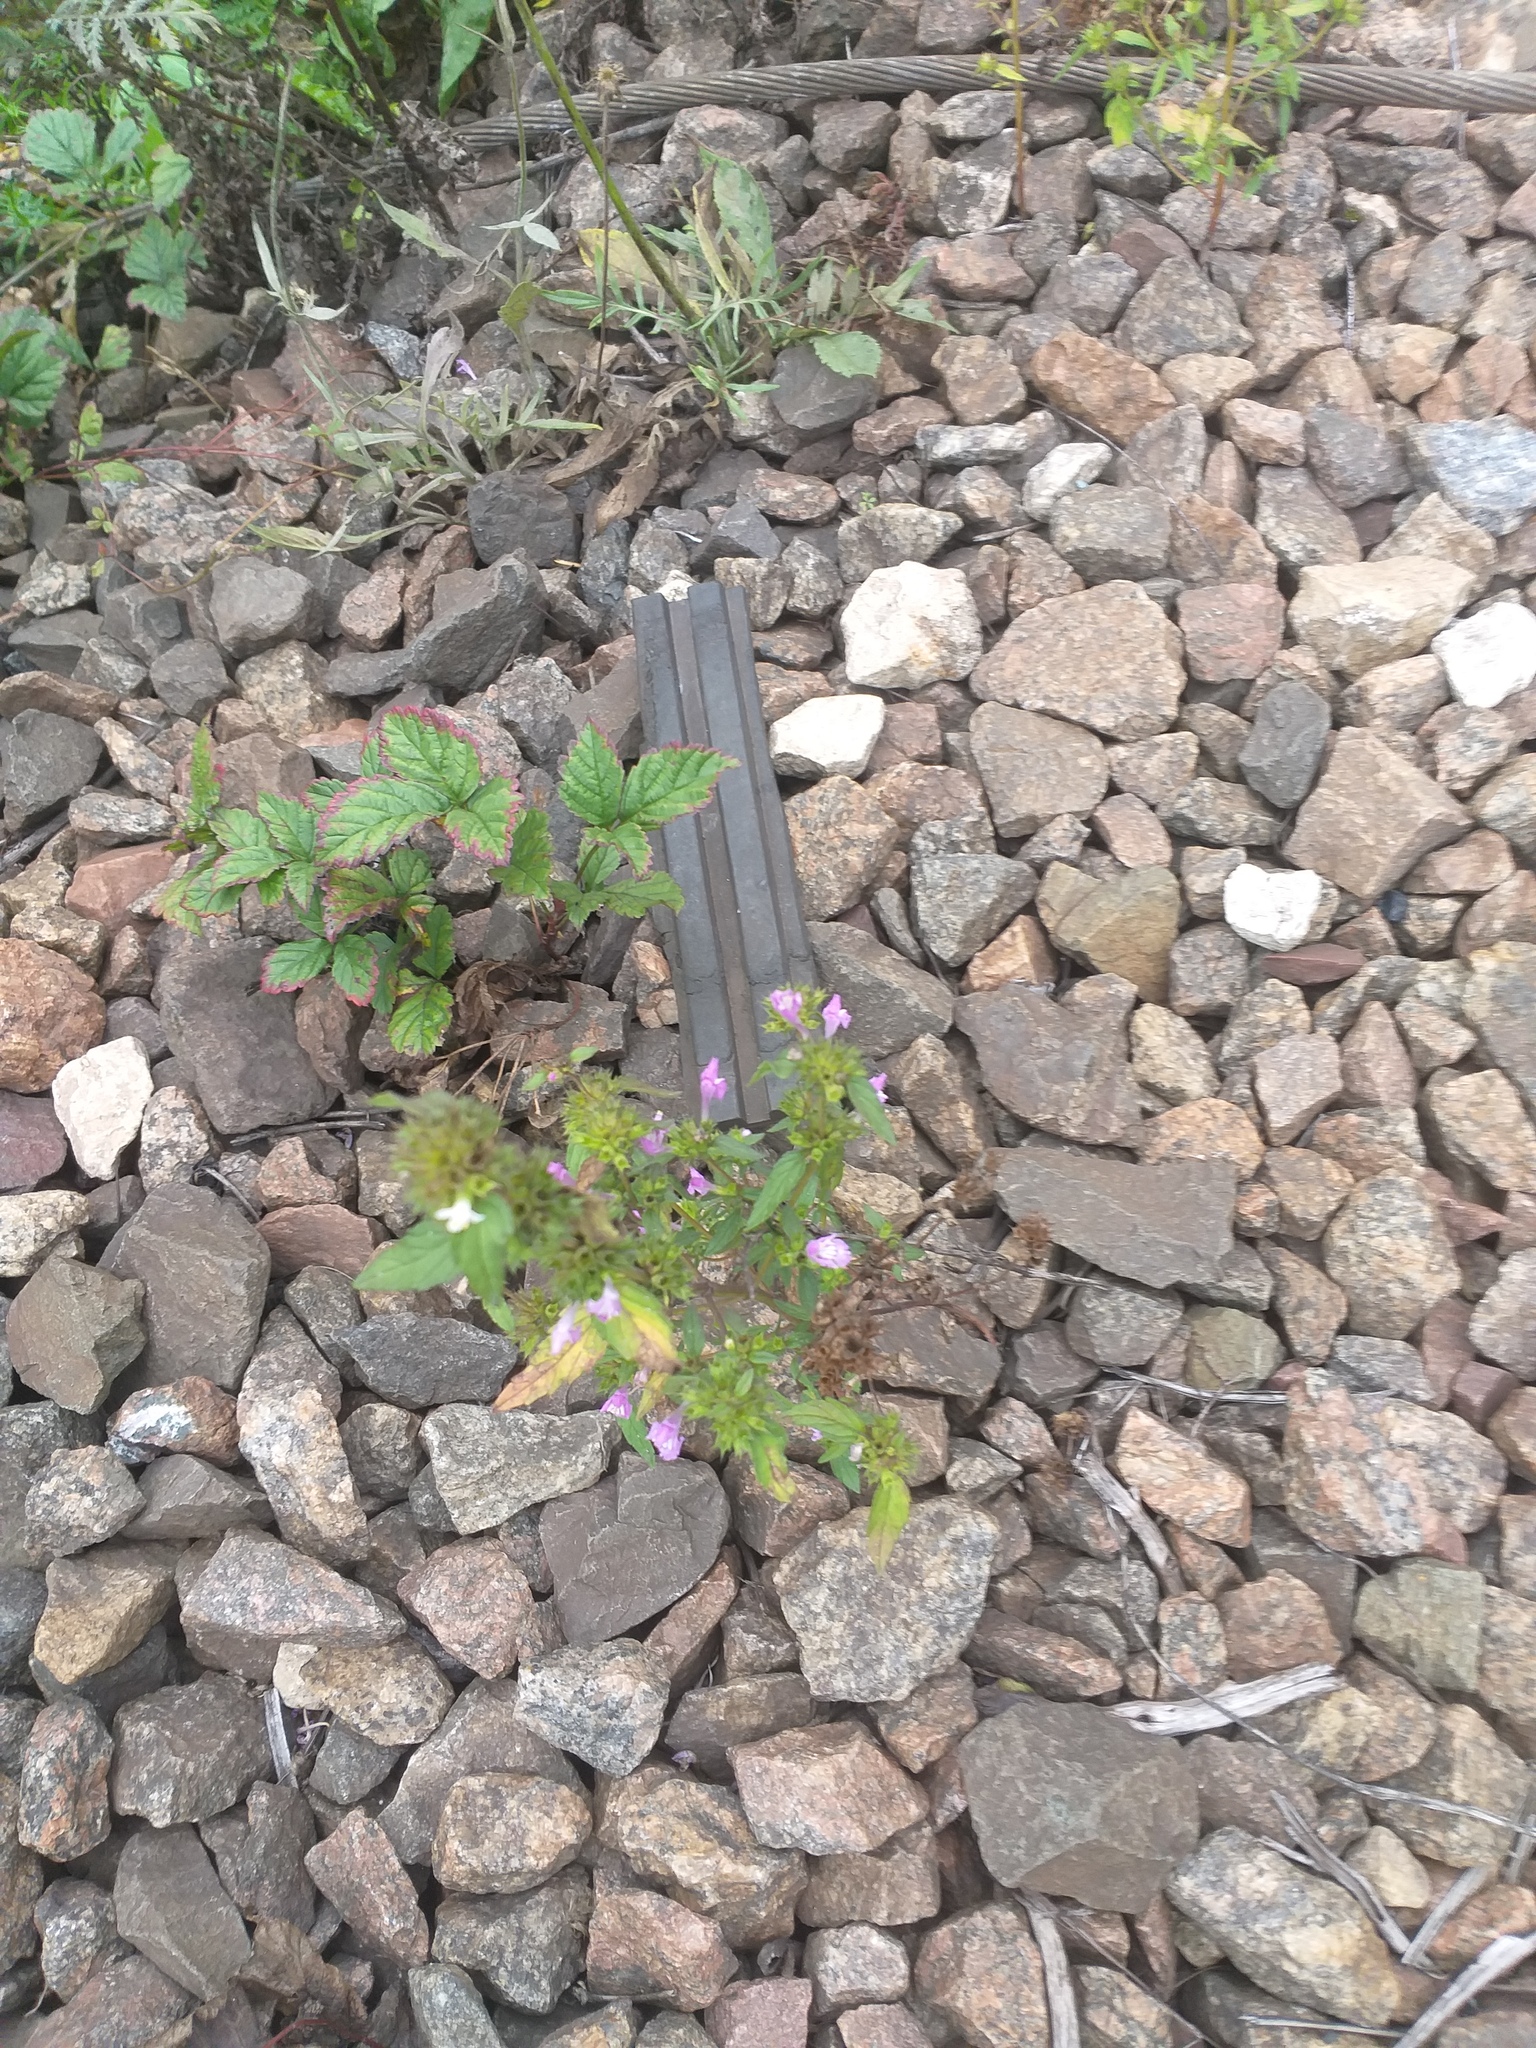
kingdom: Plantae
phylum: Tracheophyta
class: Magnoliopsida
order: Lamiales
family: Lamiaceae
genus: Galeopsis
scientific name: Galeopsis ladanum
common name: Broad-leaved hemp-nettle
